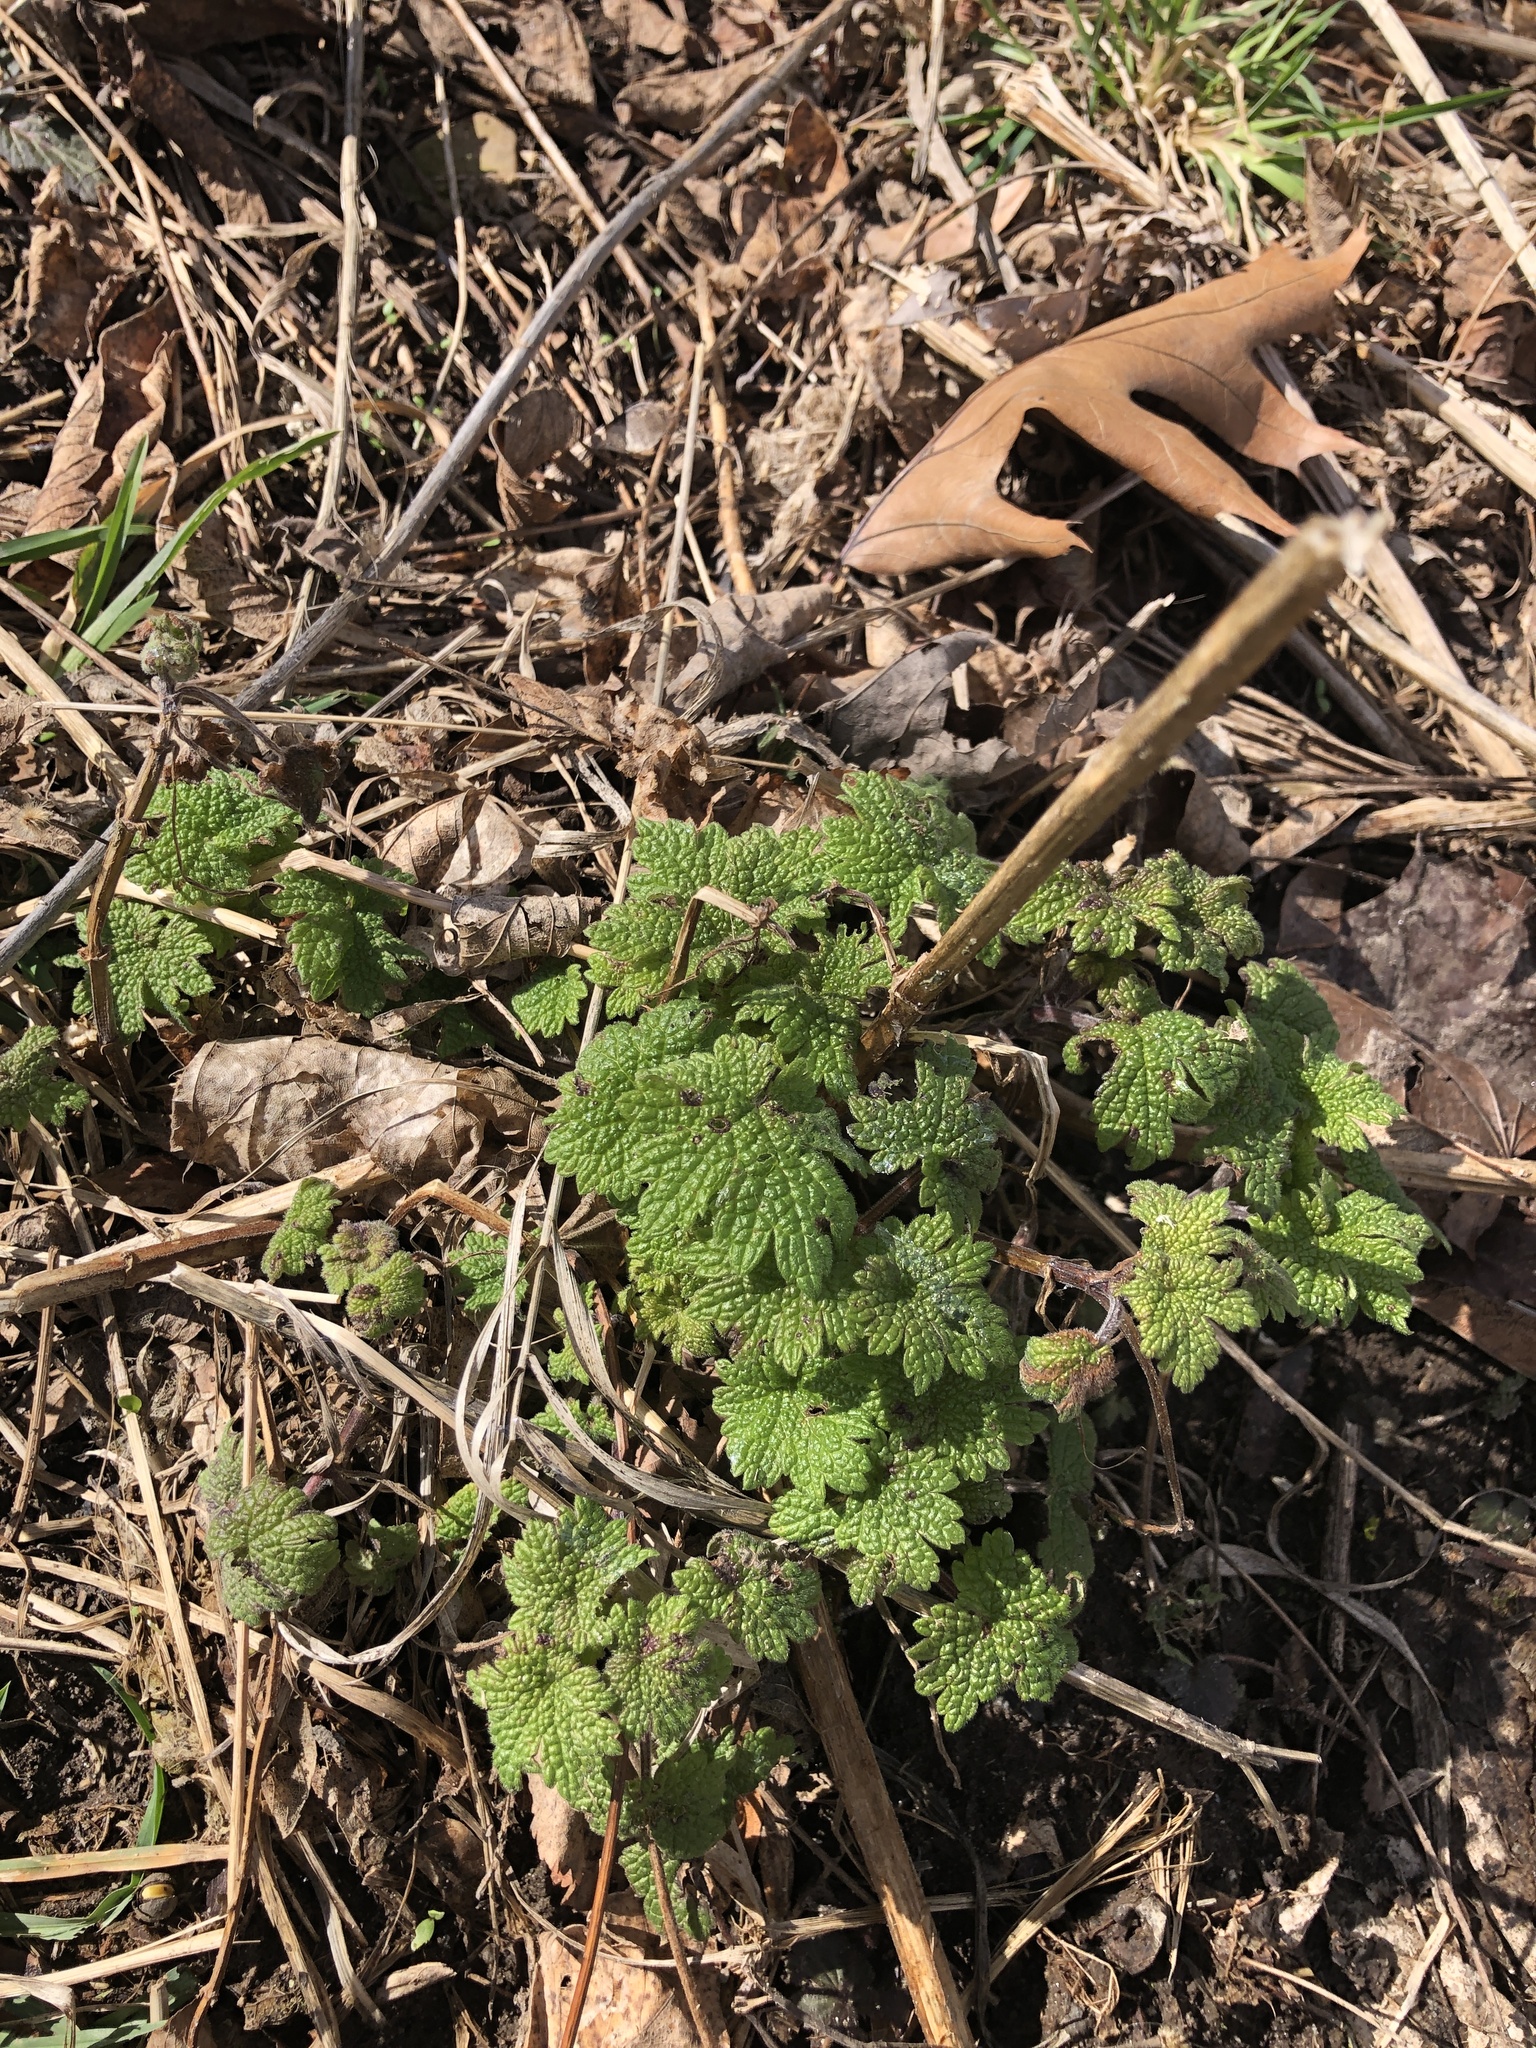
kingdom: Plantae
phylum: Tracheophyta
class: Magnoliopsida
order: Lamiales
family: Lamiaceae
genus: Leonurus
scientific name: Leonurus cardiaca
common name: Motherwort
